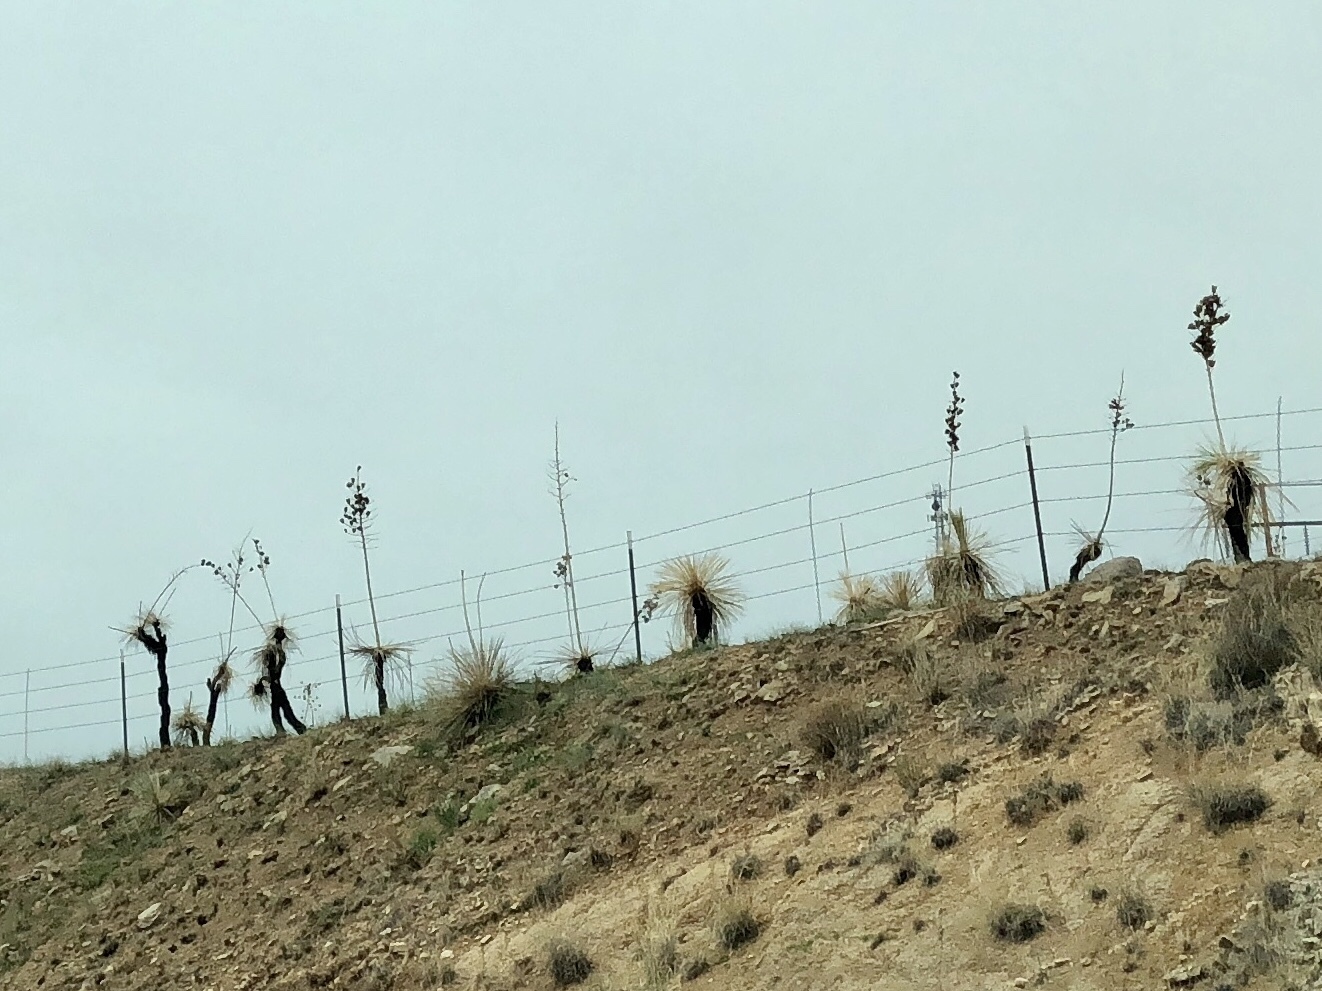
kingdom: Plantae
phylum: Tracheophyta
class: Liliopsida
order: Asparagales
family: Asparagaceae
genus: Yucca
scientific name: Yucca elata
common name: Palmella
